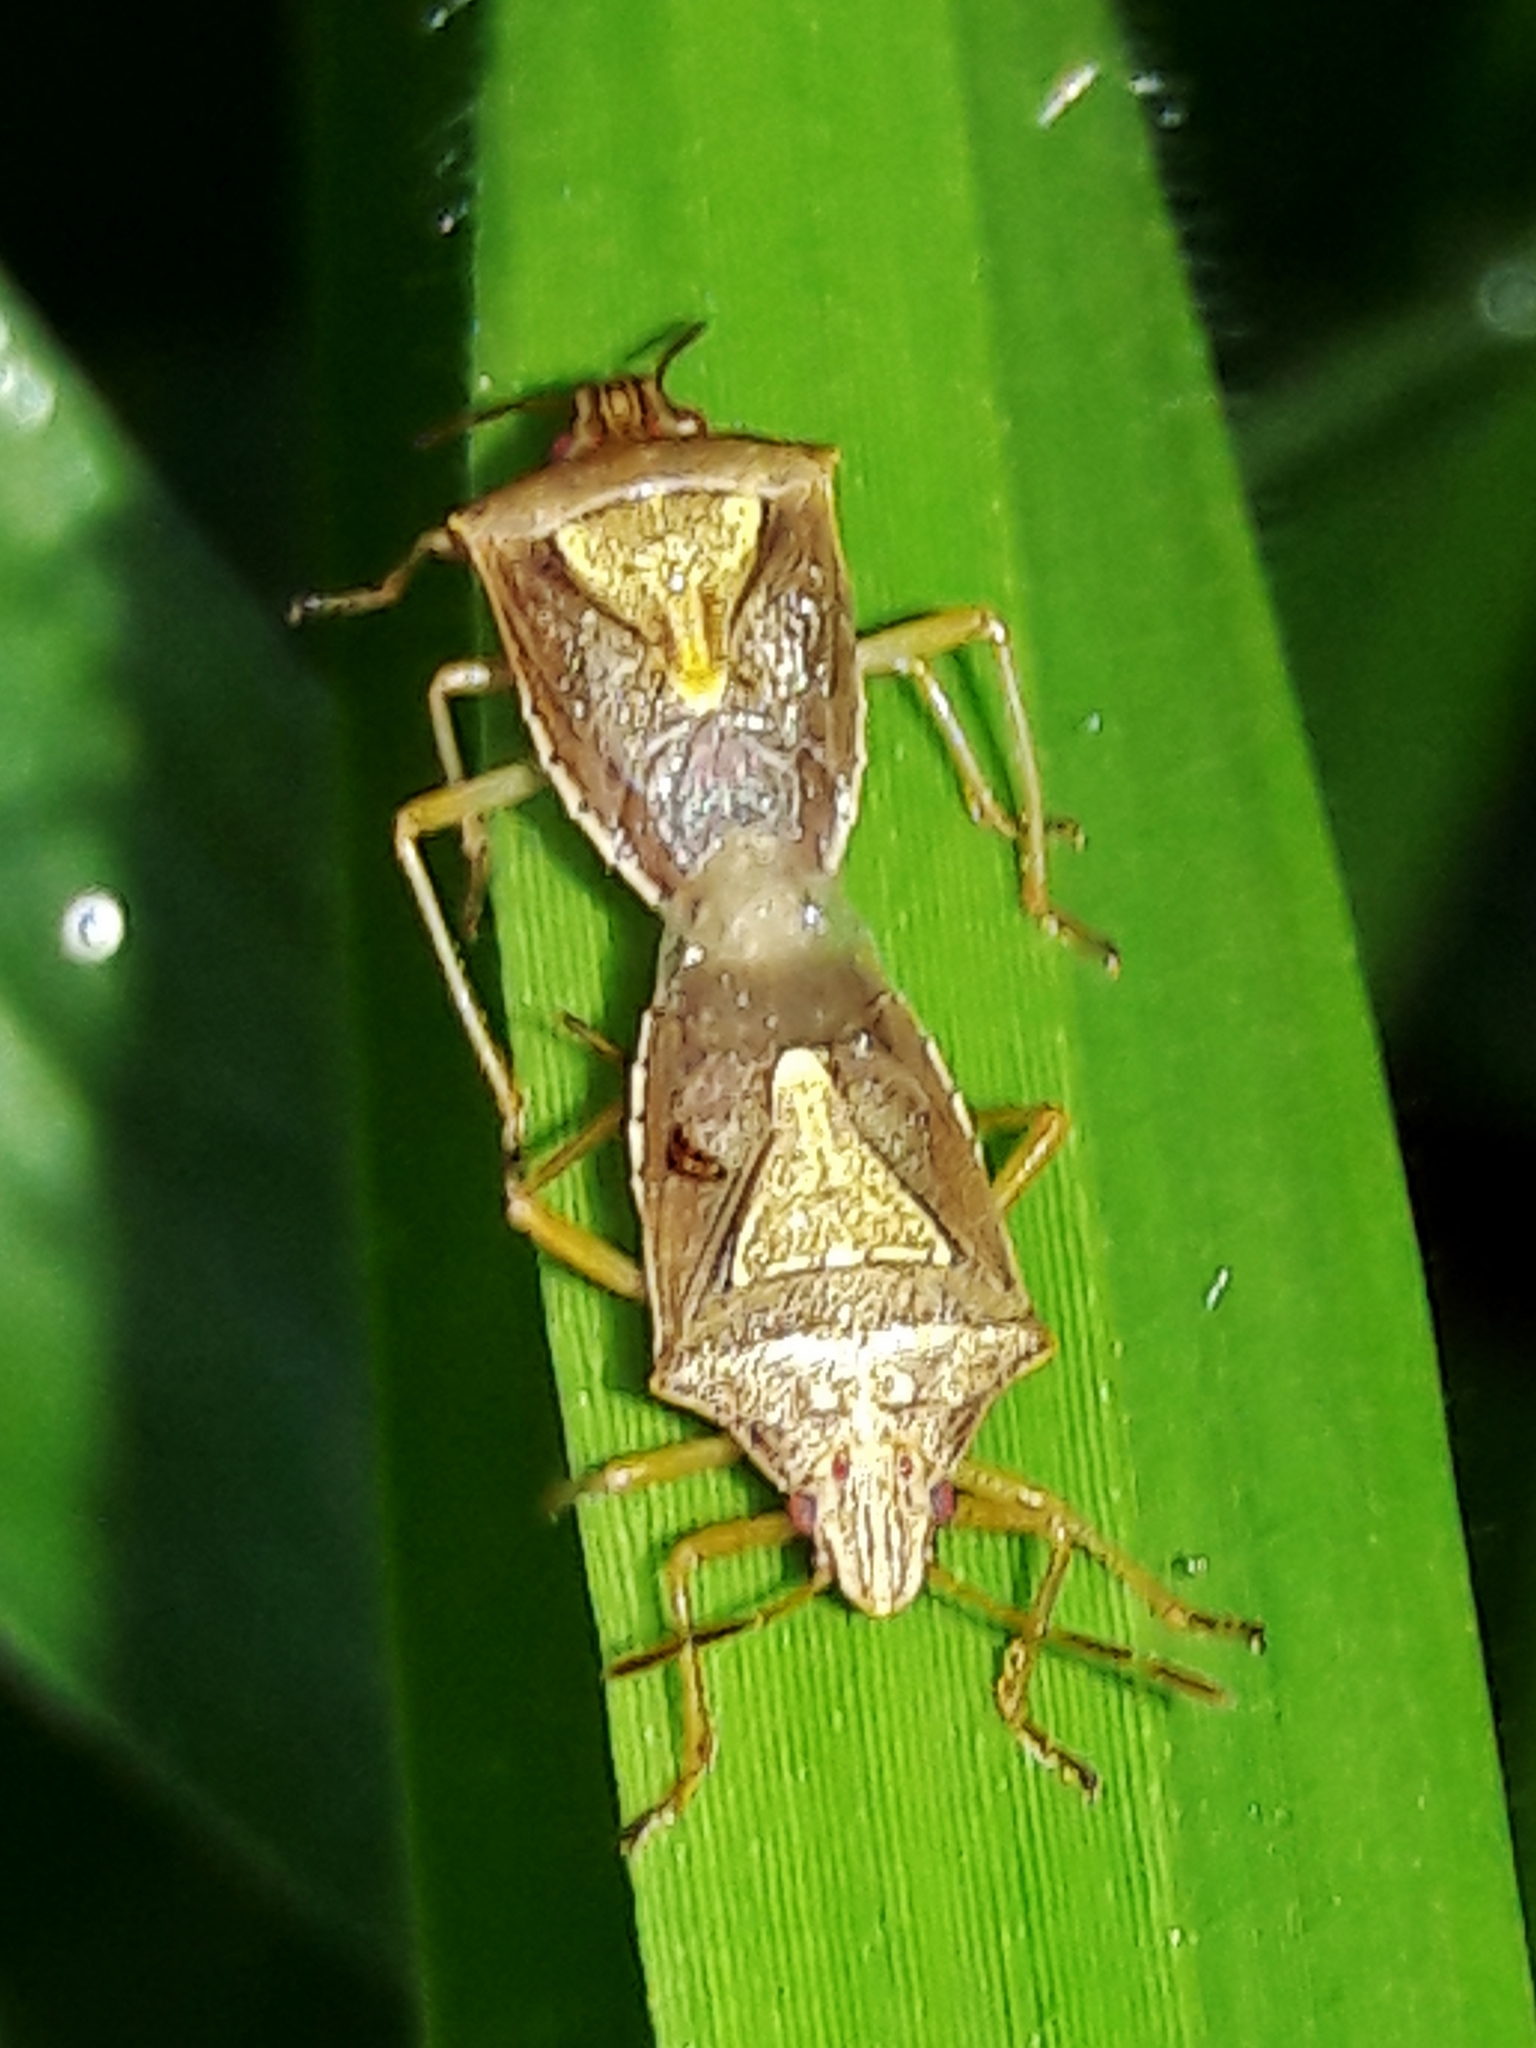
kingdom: Animalia
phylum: Arthropoda
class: Insecta
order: Hemiptera
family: Pentatomidae
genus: Oebalus
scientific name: Oebalus ypsilongriseus
